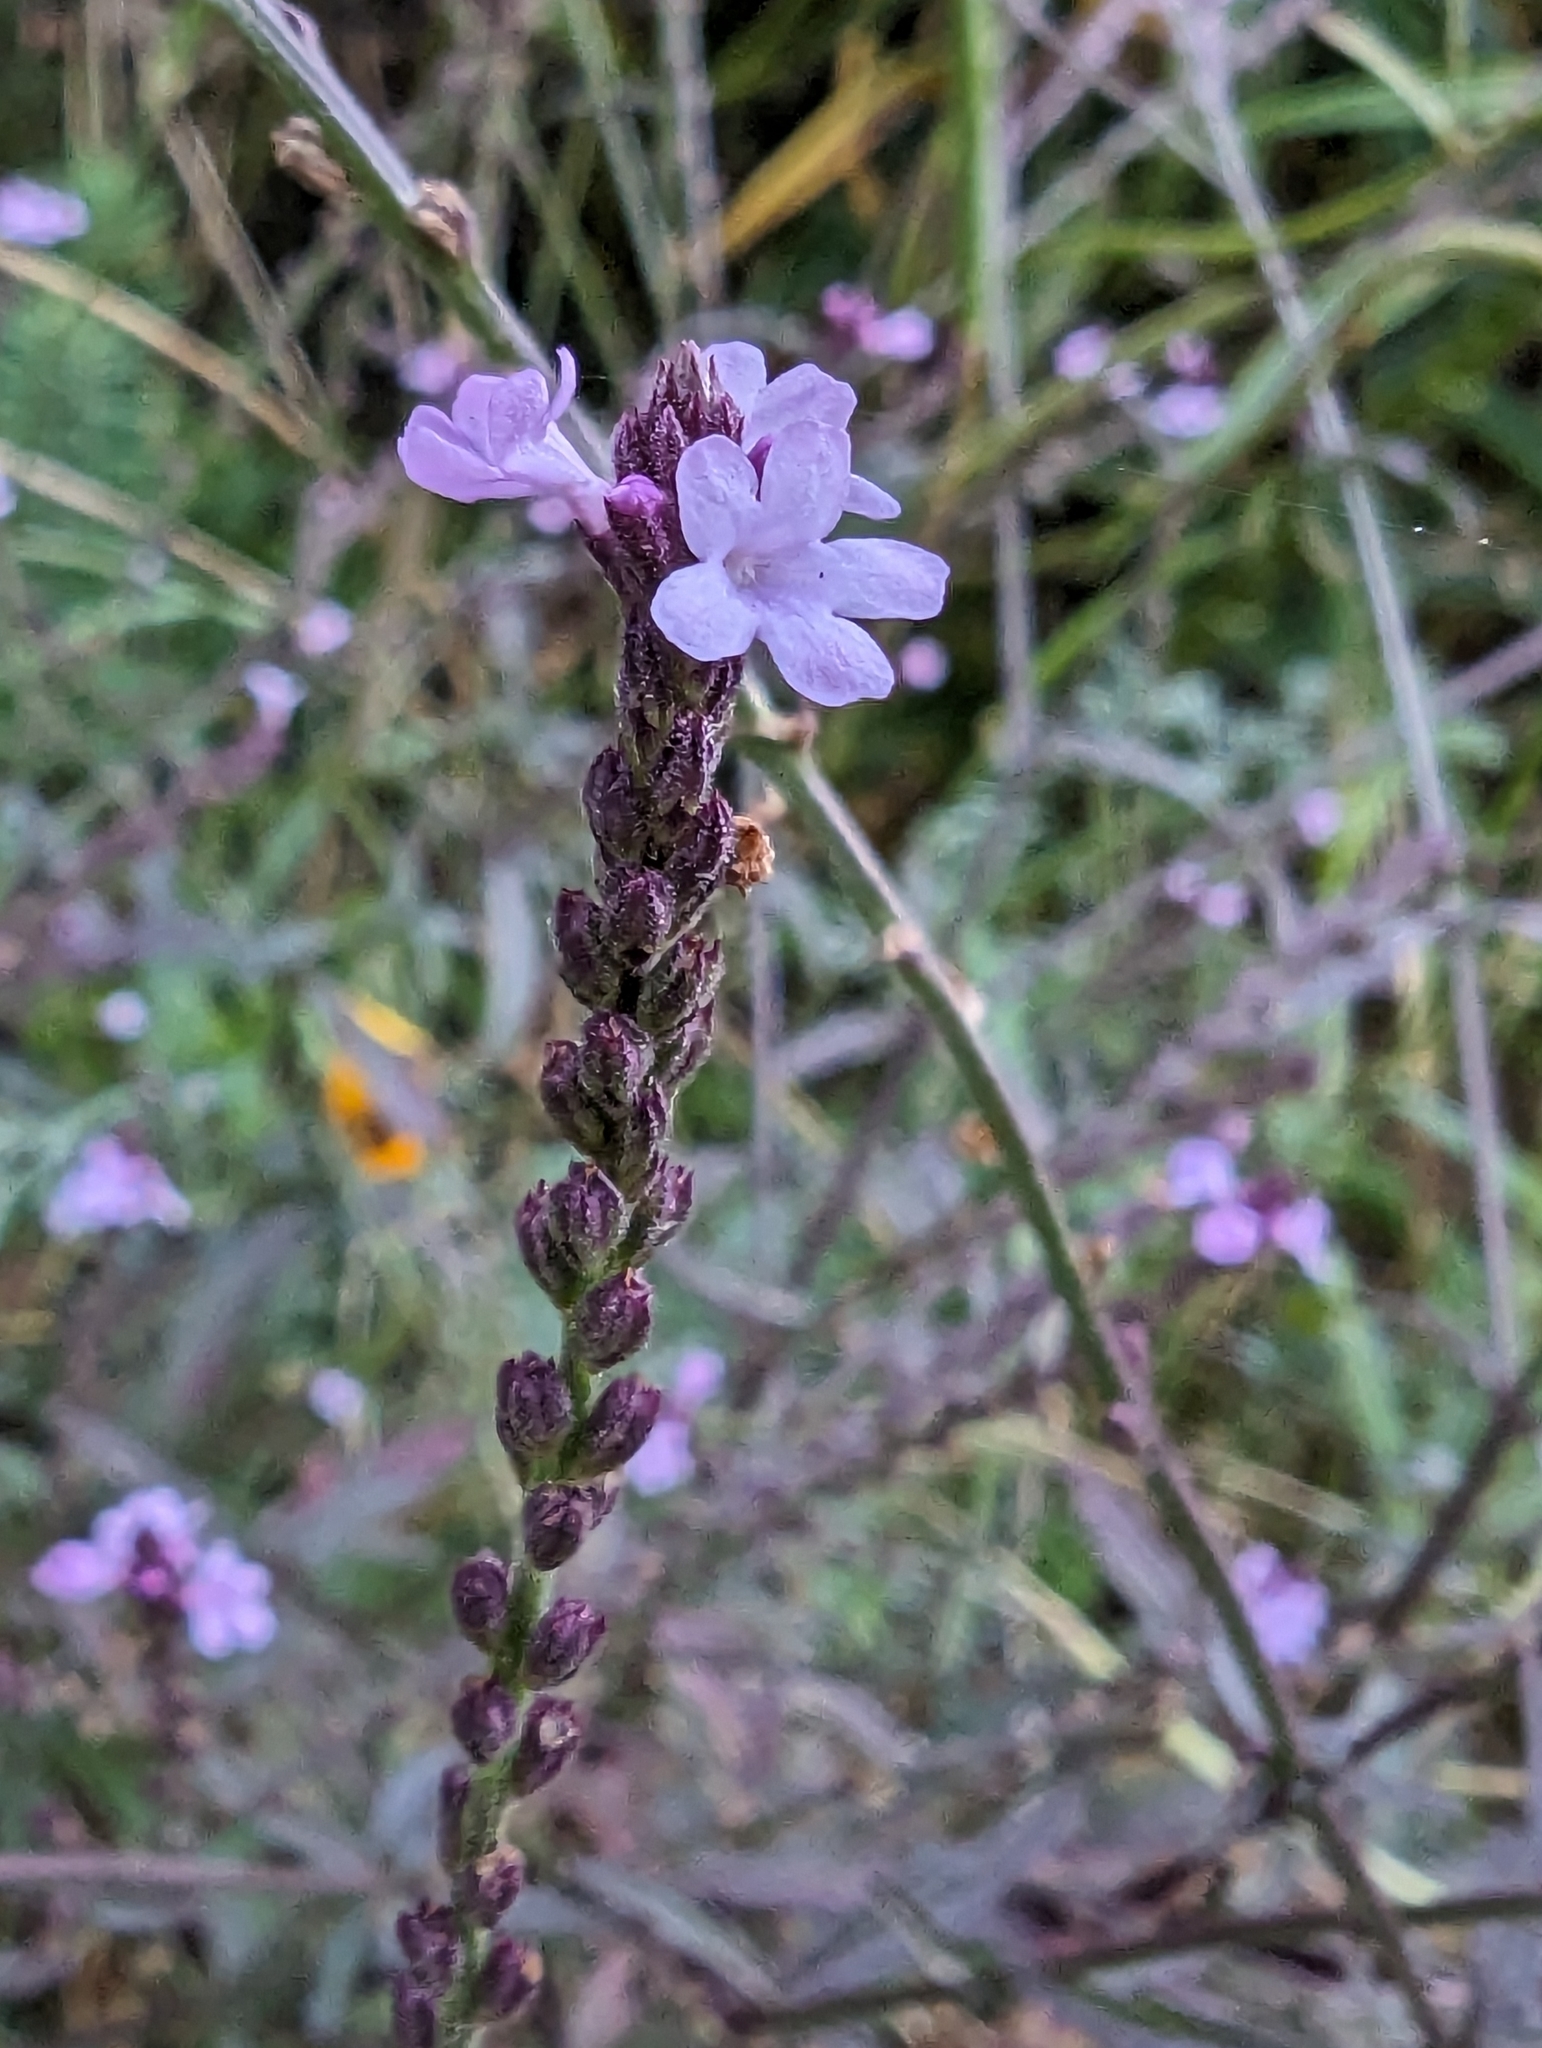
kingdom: Plantae
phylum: Tracheophyta
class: Magnoliopsida
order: Lamiales
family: Verbenaceae
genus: Verbena
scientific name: Verbena officinalis
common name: Vervain
